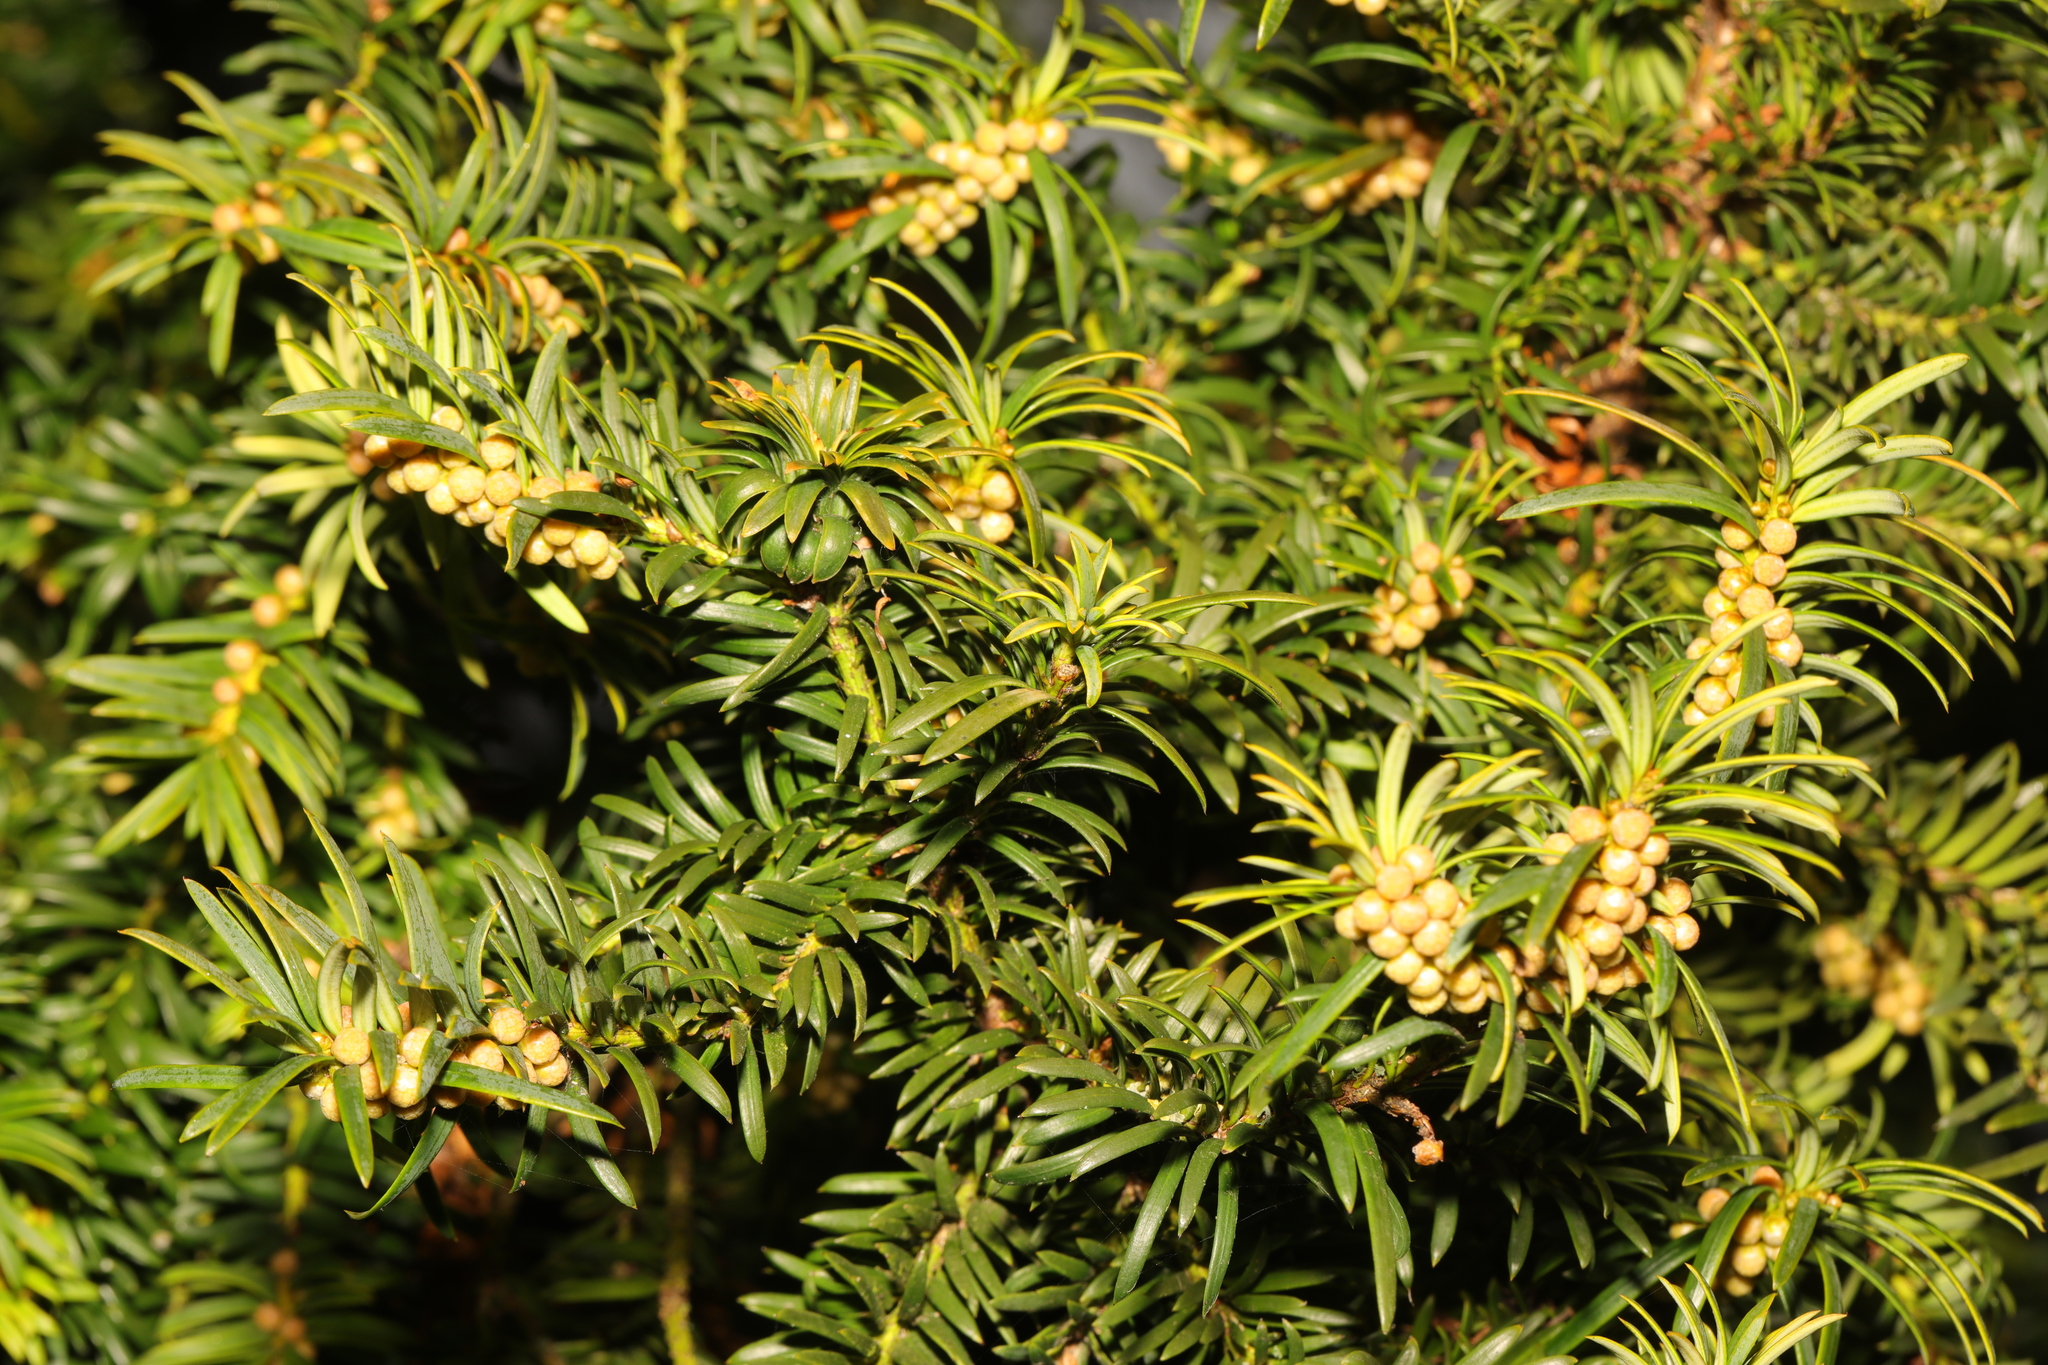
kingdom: Plantae
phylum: Tracheophyta
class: Pinopsida
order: Pinales
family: Taxaceae
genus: Taxus
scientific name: Taxus baccata
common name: Yew
